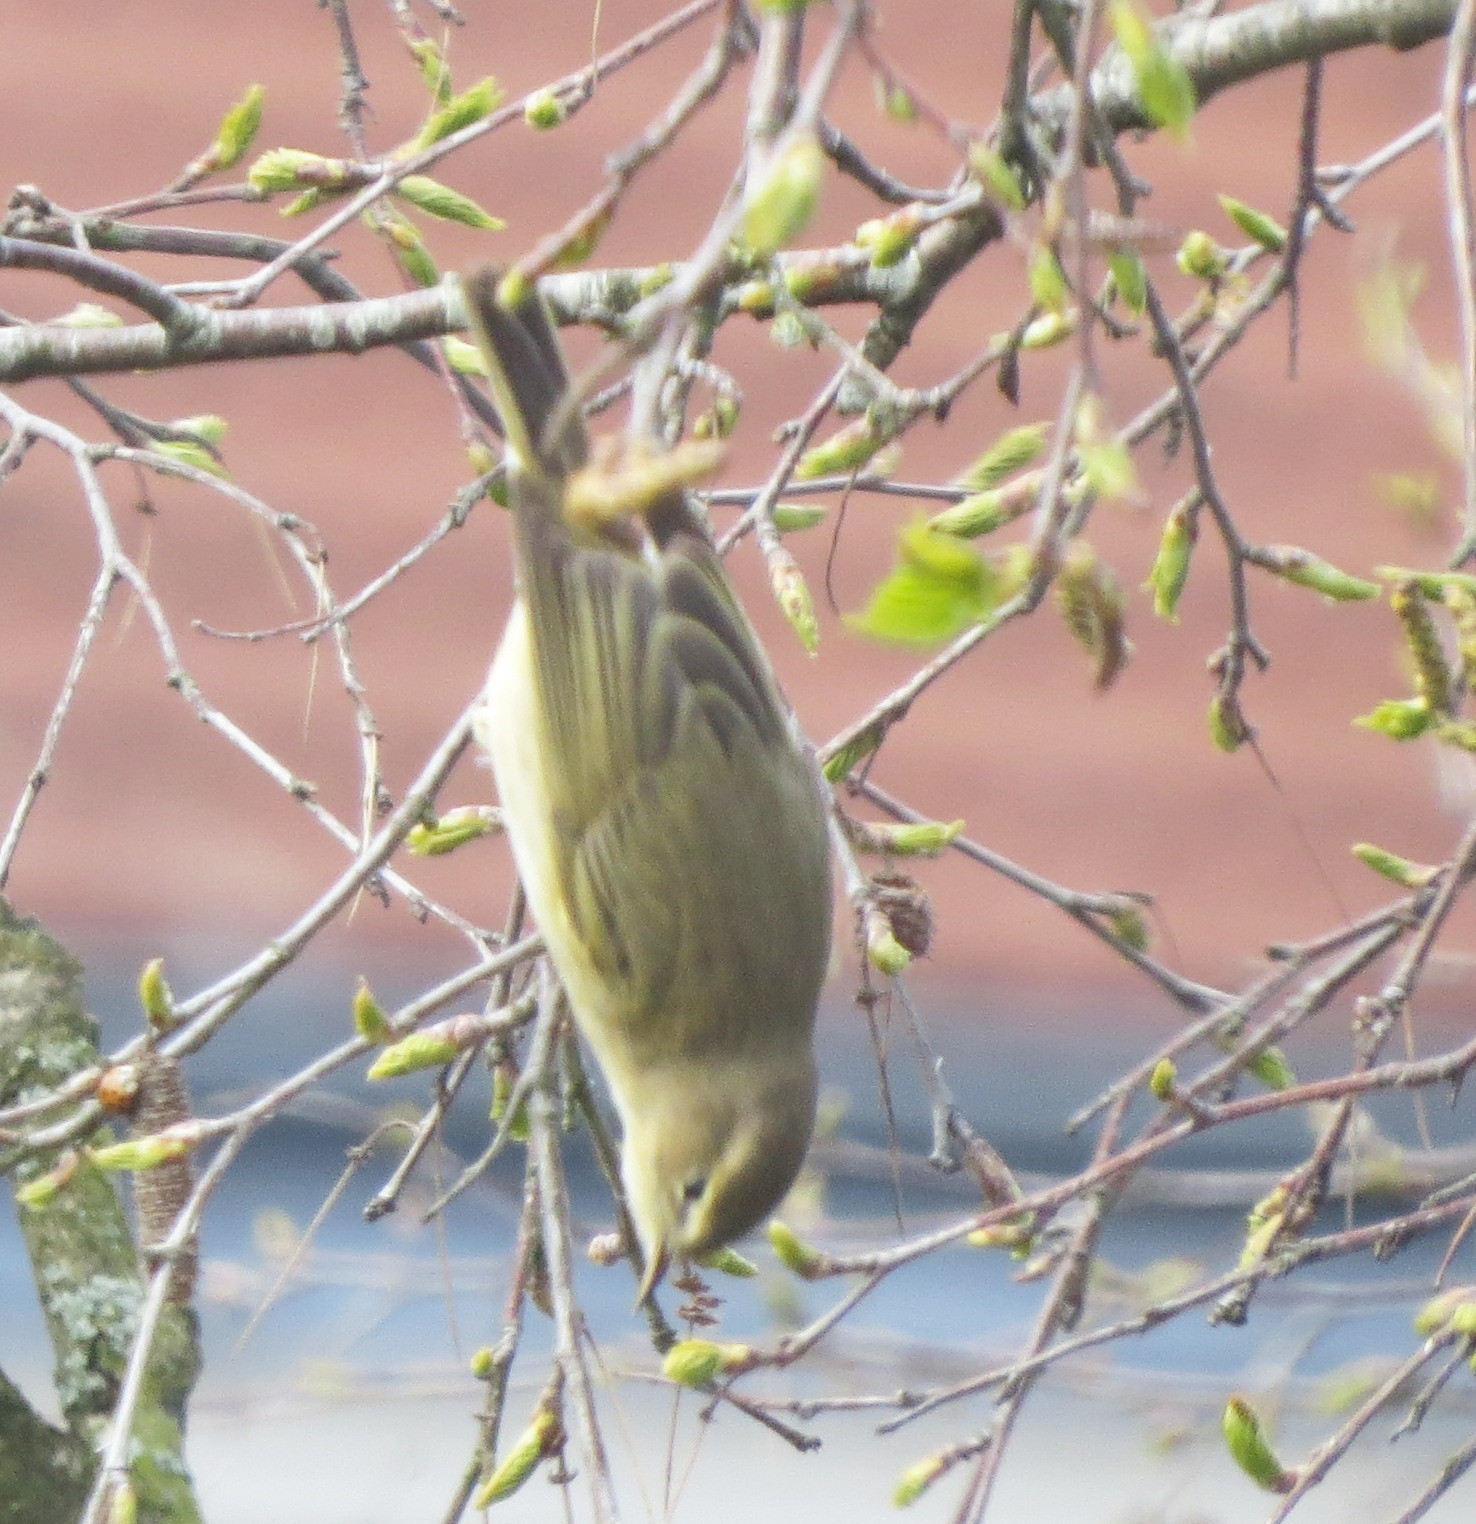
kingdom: Animalia
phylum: Chordata
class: Aves
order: Passeriformes
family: Phylloscopidae
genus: Phylloscopus
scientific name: Phylloscopus collybita
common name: Common chiffchaff
